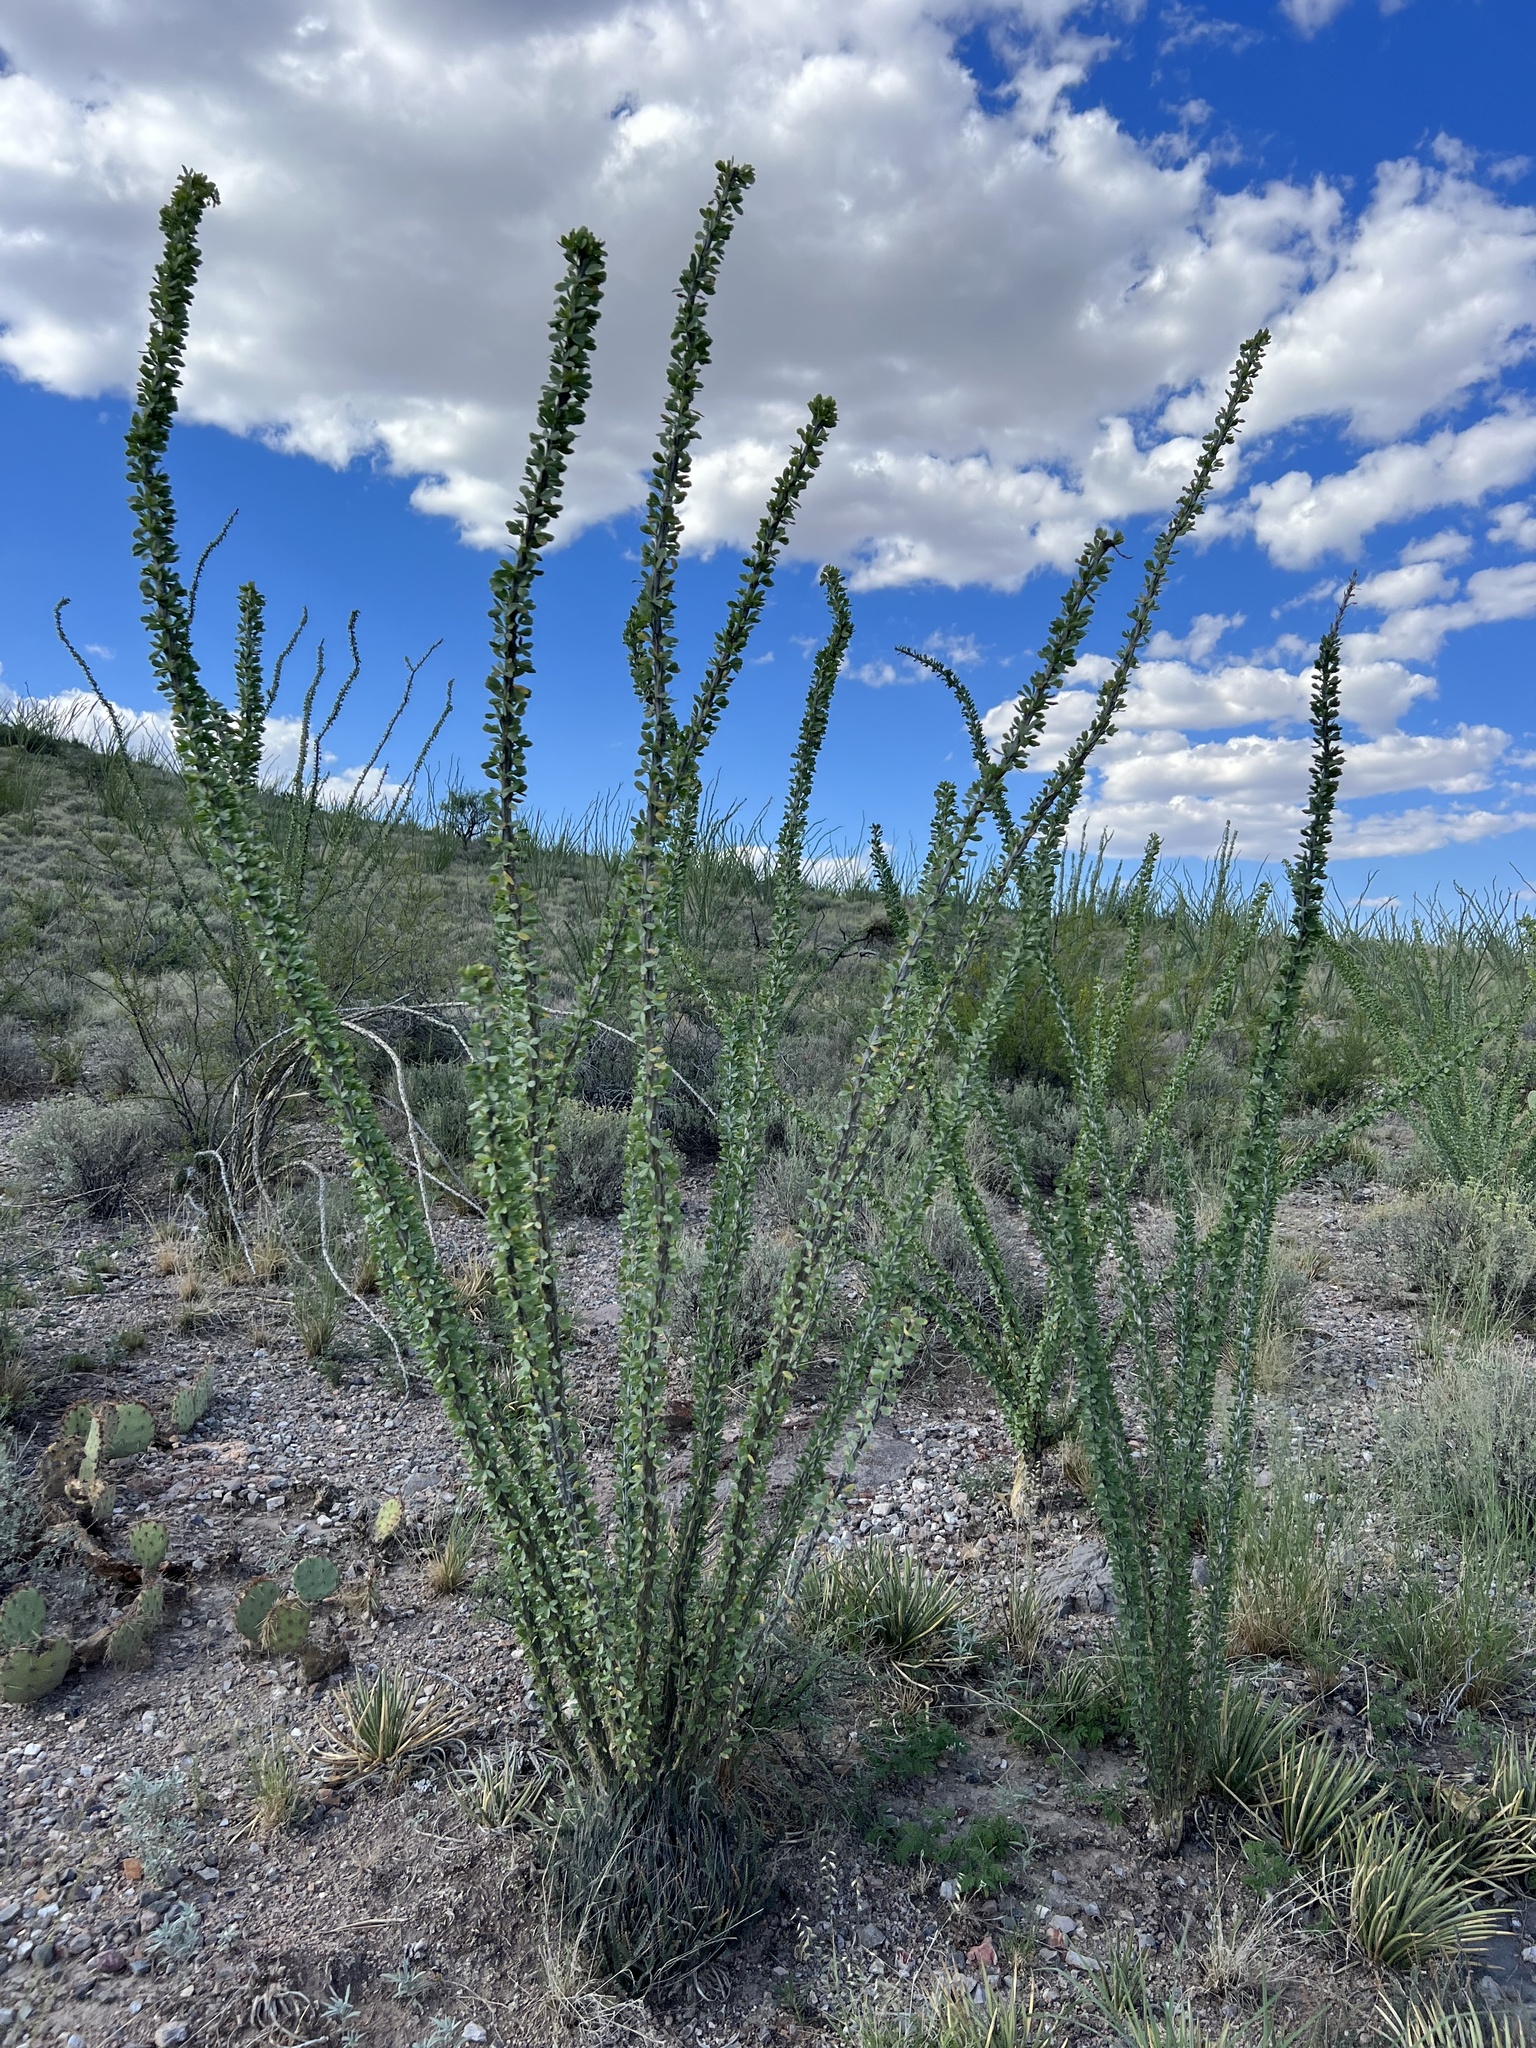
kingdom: Plantae
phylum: Tracheophyta
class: Magnoliopsida
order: Ericales
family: Fouquieriaceae
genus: Fouquieria
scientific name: Fouquieria splendens
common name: Vine-cactus
